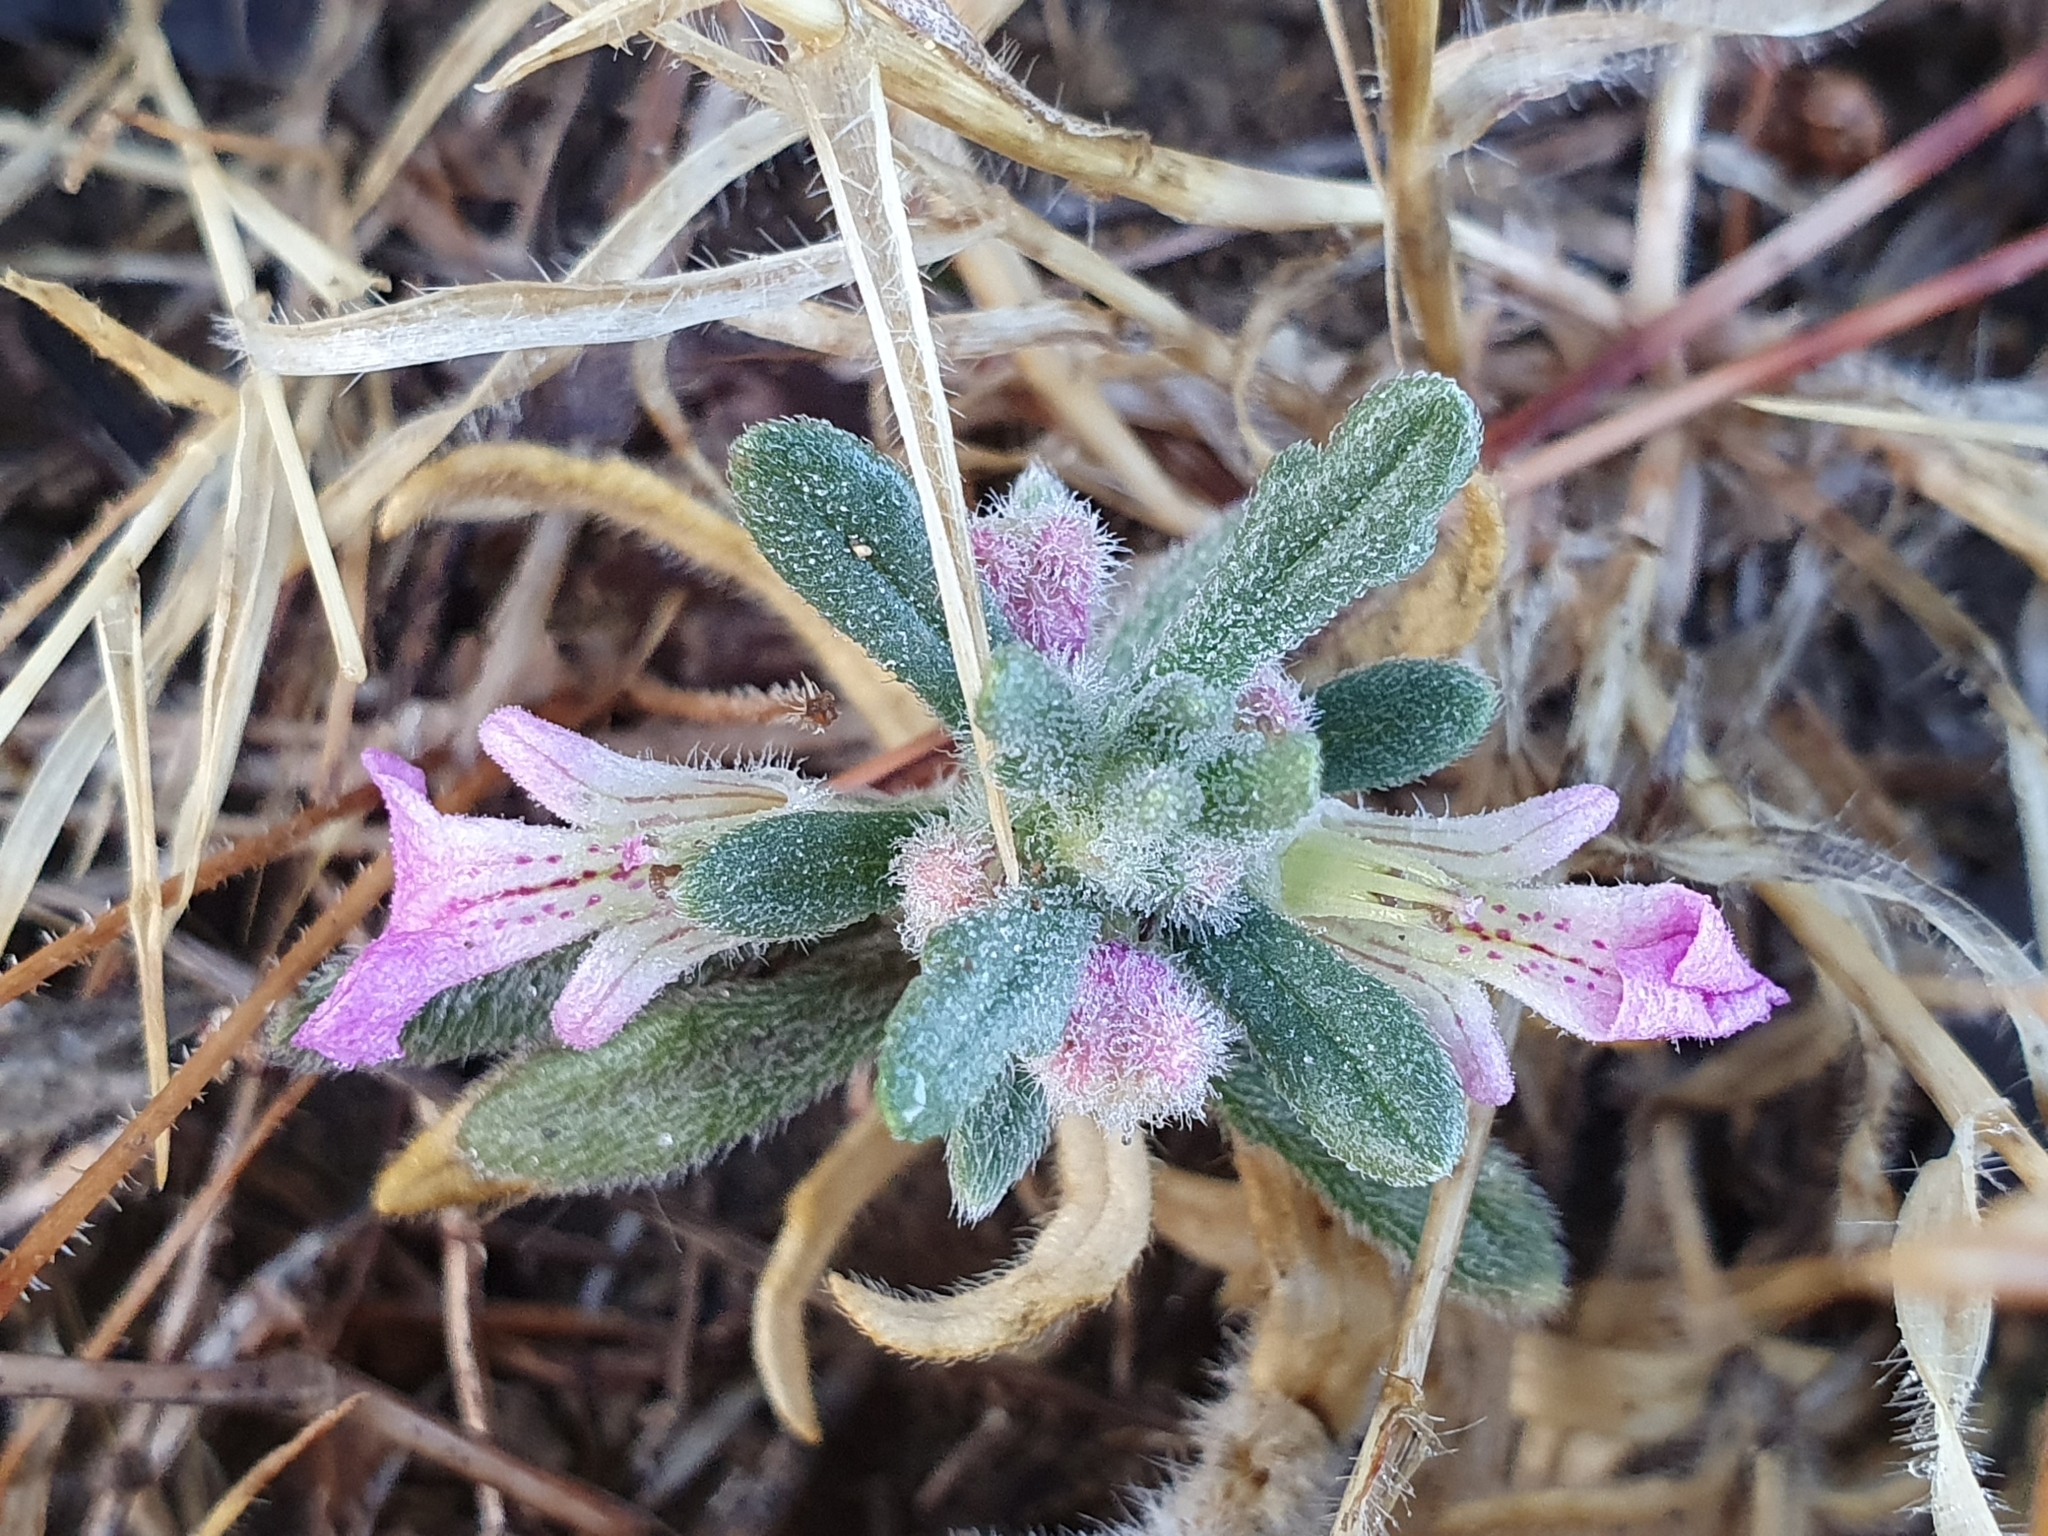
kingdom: Plantae
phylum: Tracheophyta
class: Magnoliopsida
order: Lamiales
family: Lamiaceae
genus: Ajuga
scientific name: Ajuga iva
